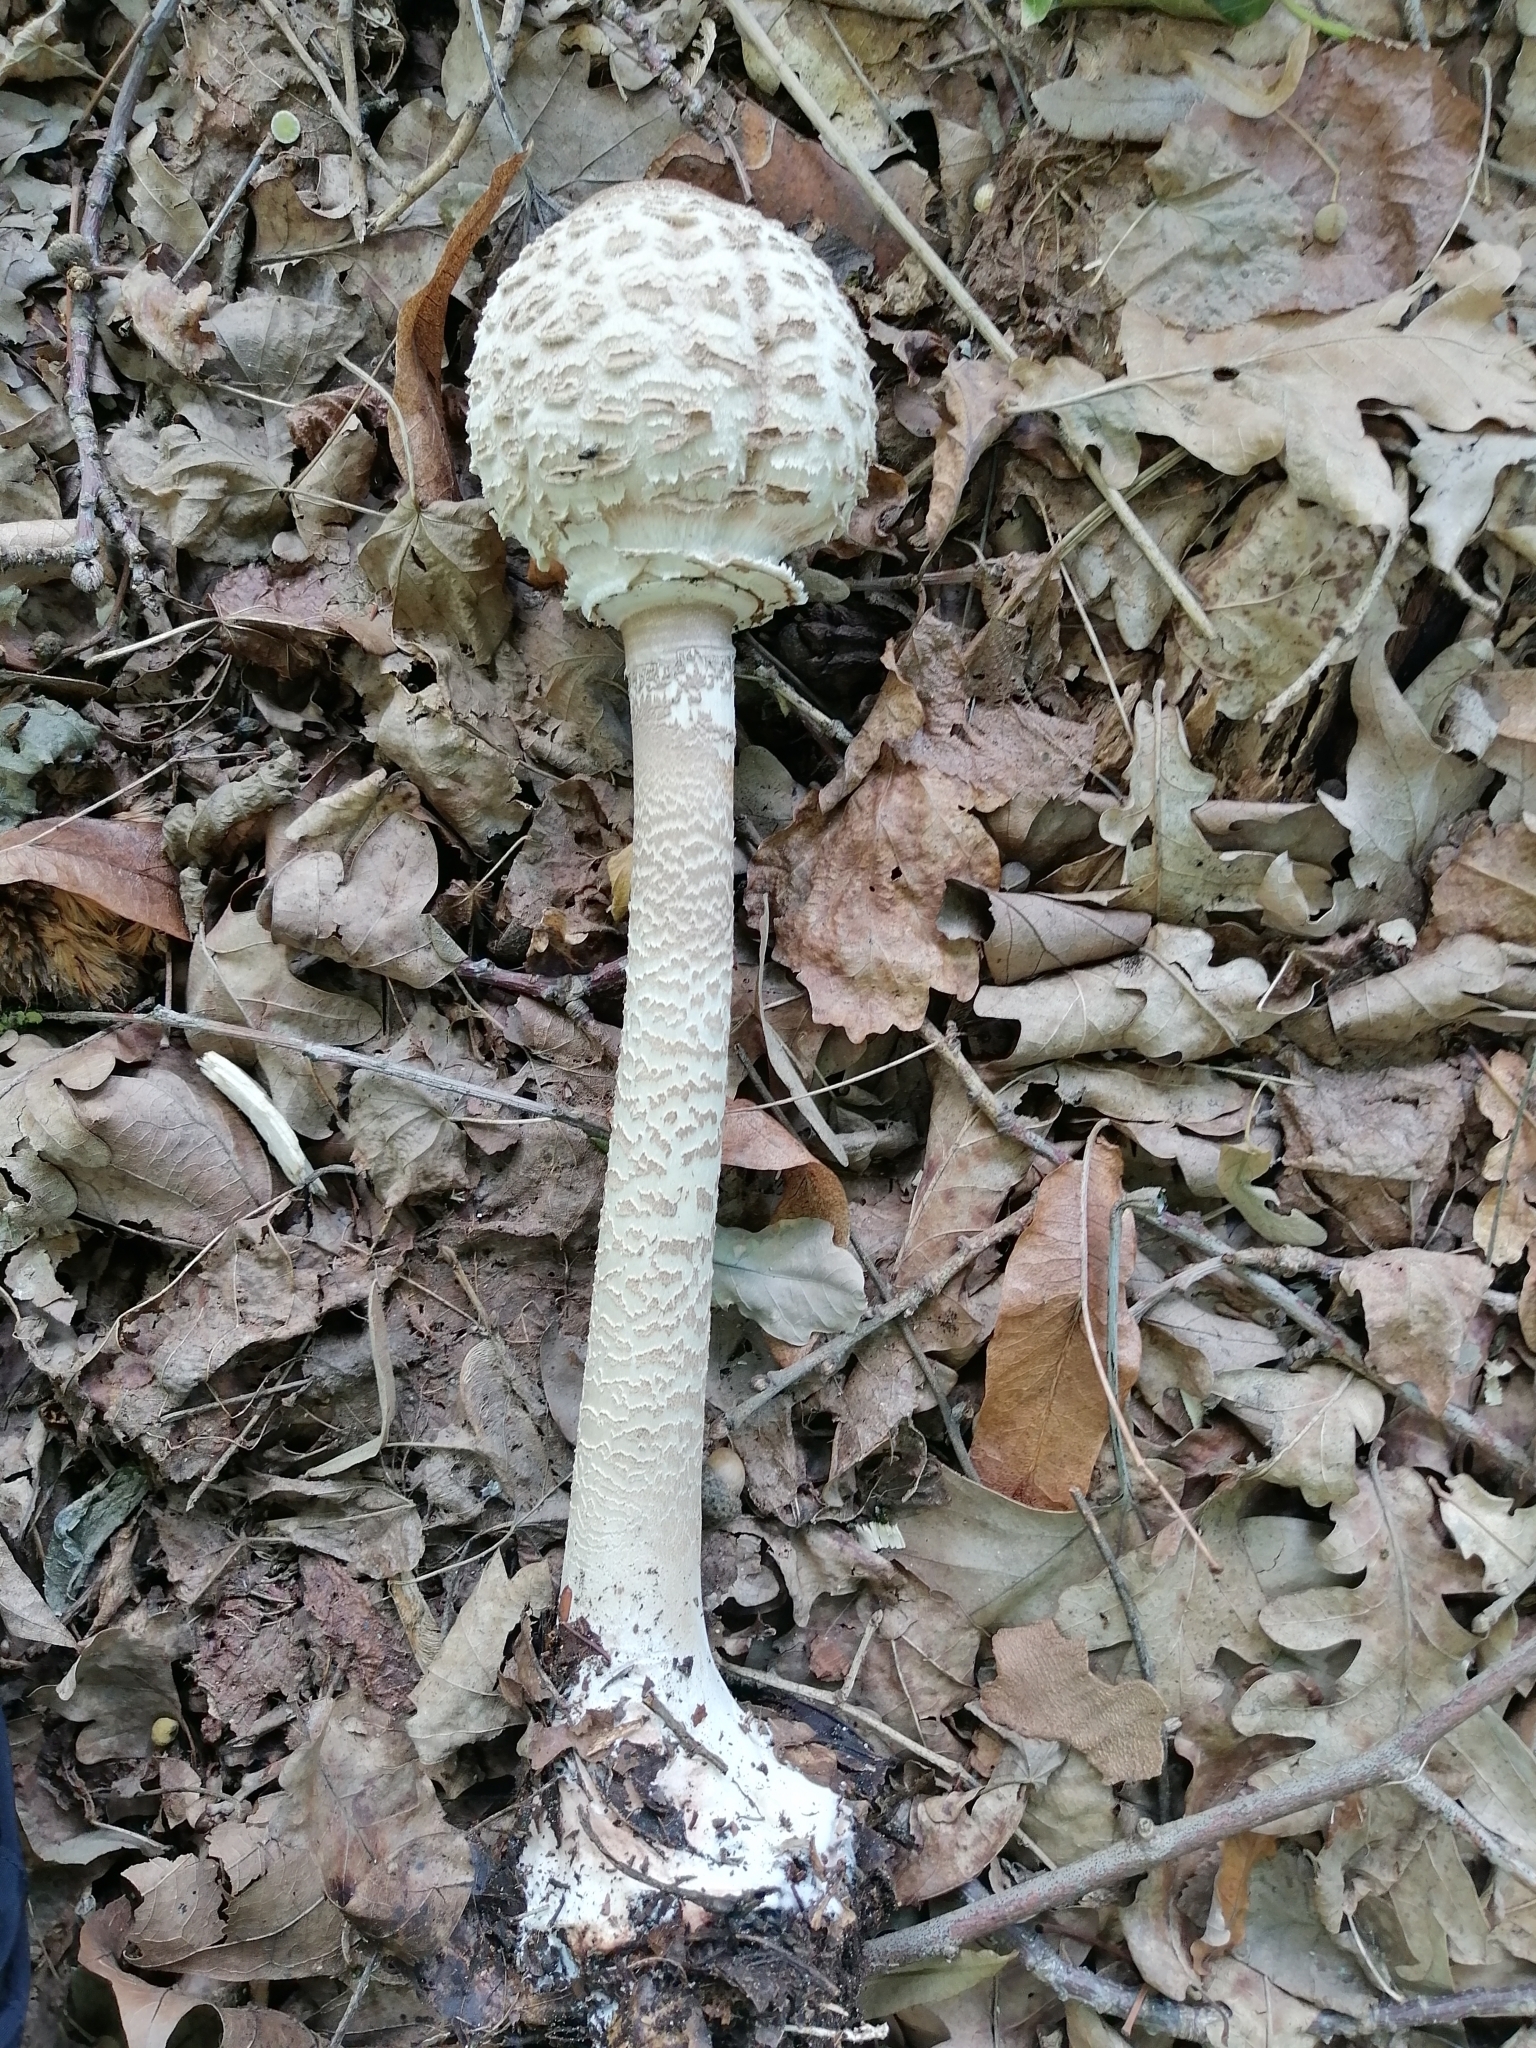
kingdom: Fungi
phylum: Basidiomycota
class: Agaricomycetes
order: Agaricales
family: Agaricaceae
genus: Macrolepiota
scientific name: Macrolepiota procera
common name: Parasol
